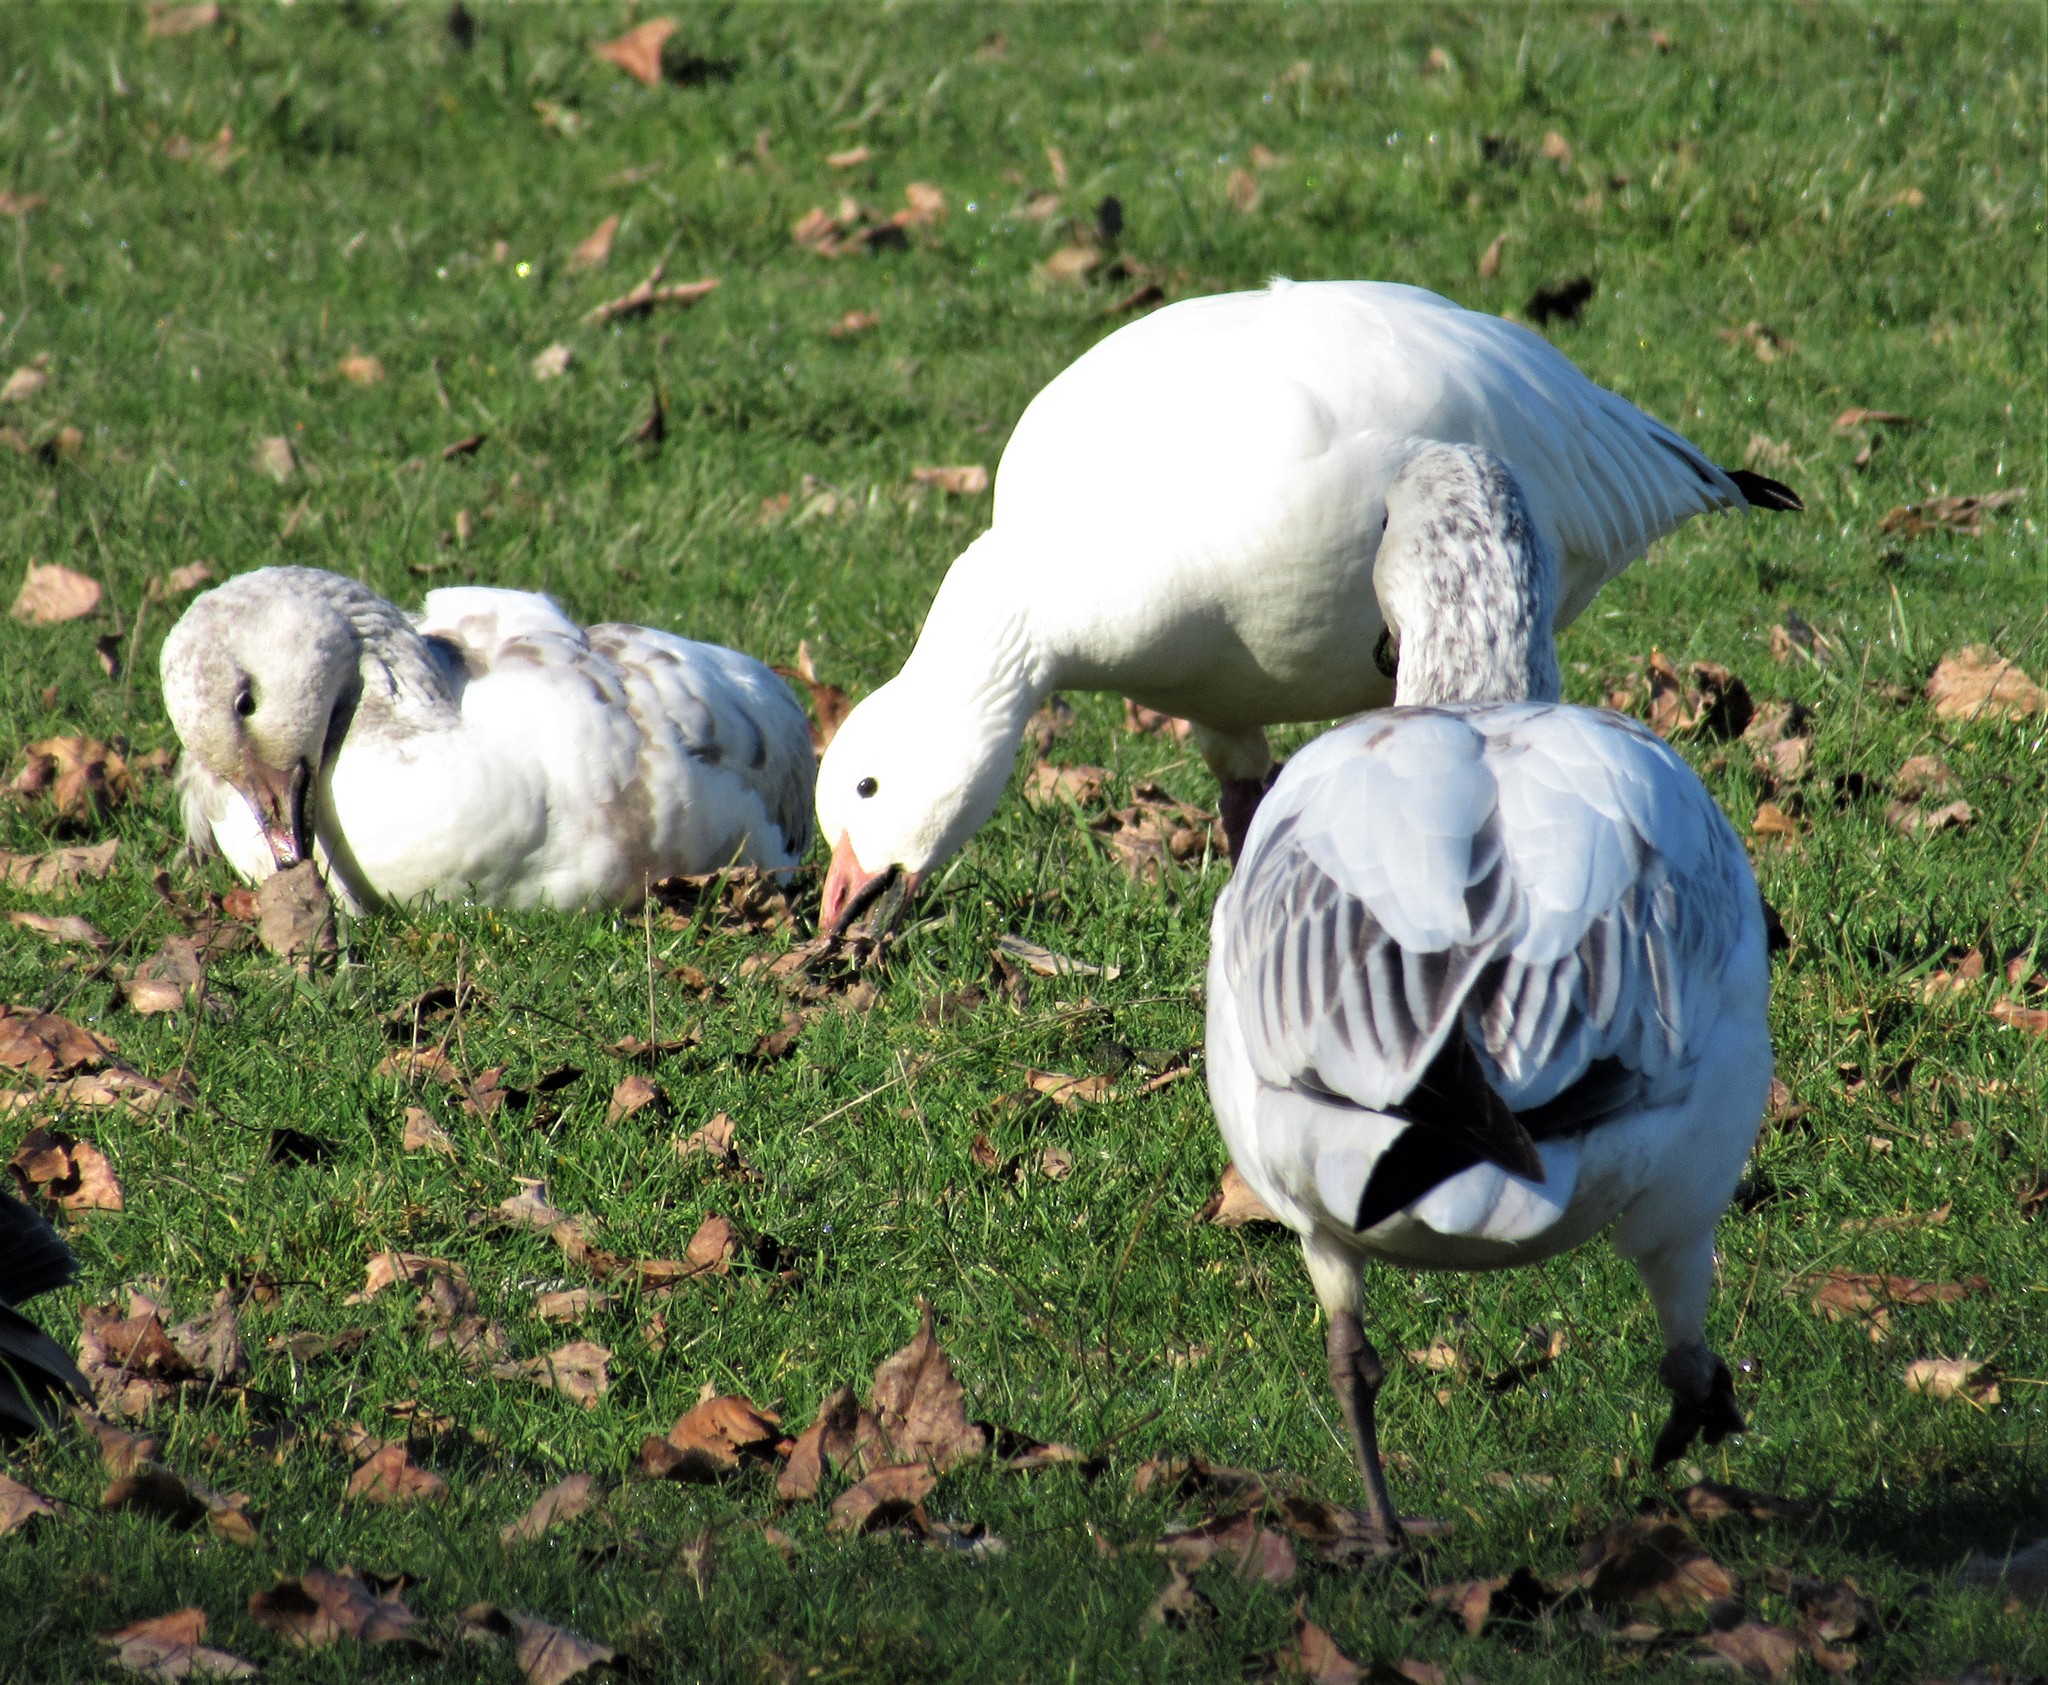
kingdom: Animalia
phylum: Chordata
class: Aves
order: Anseriformes
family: Anatidae
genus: Anser
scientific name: Anser caerulescens
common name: Snow goose
